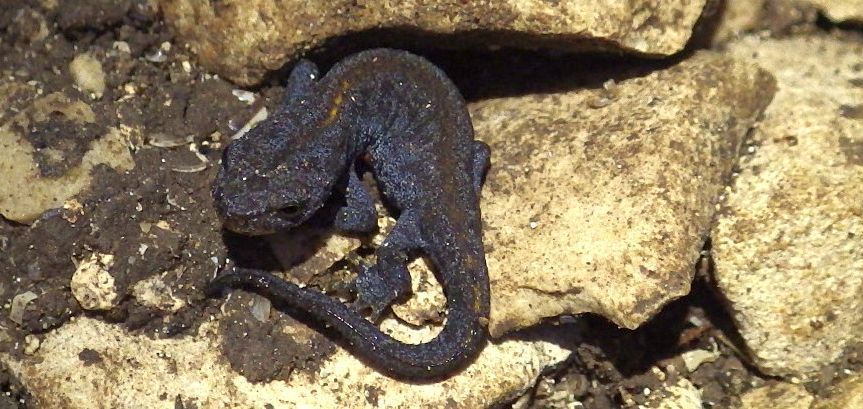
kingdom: Animalia
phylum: Chordata
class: Amphibia
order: Caudata
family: Salamandridae
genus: Ichthyosaura
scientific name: Ichthyosaura alpestris
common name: Alpine newt
